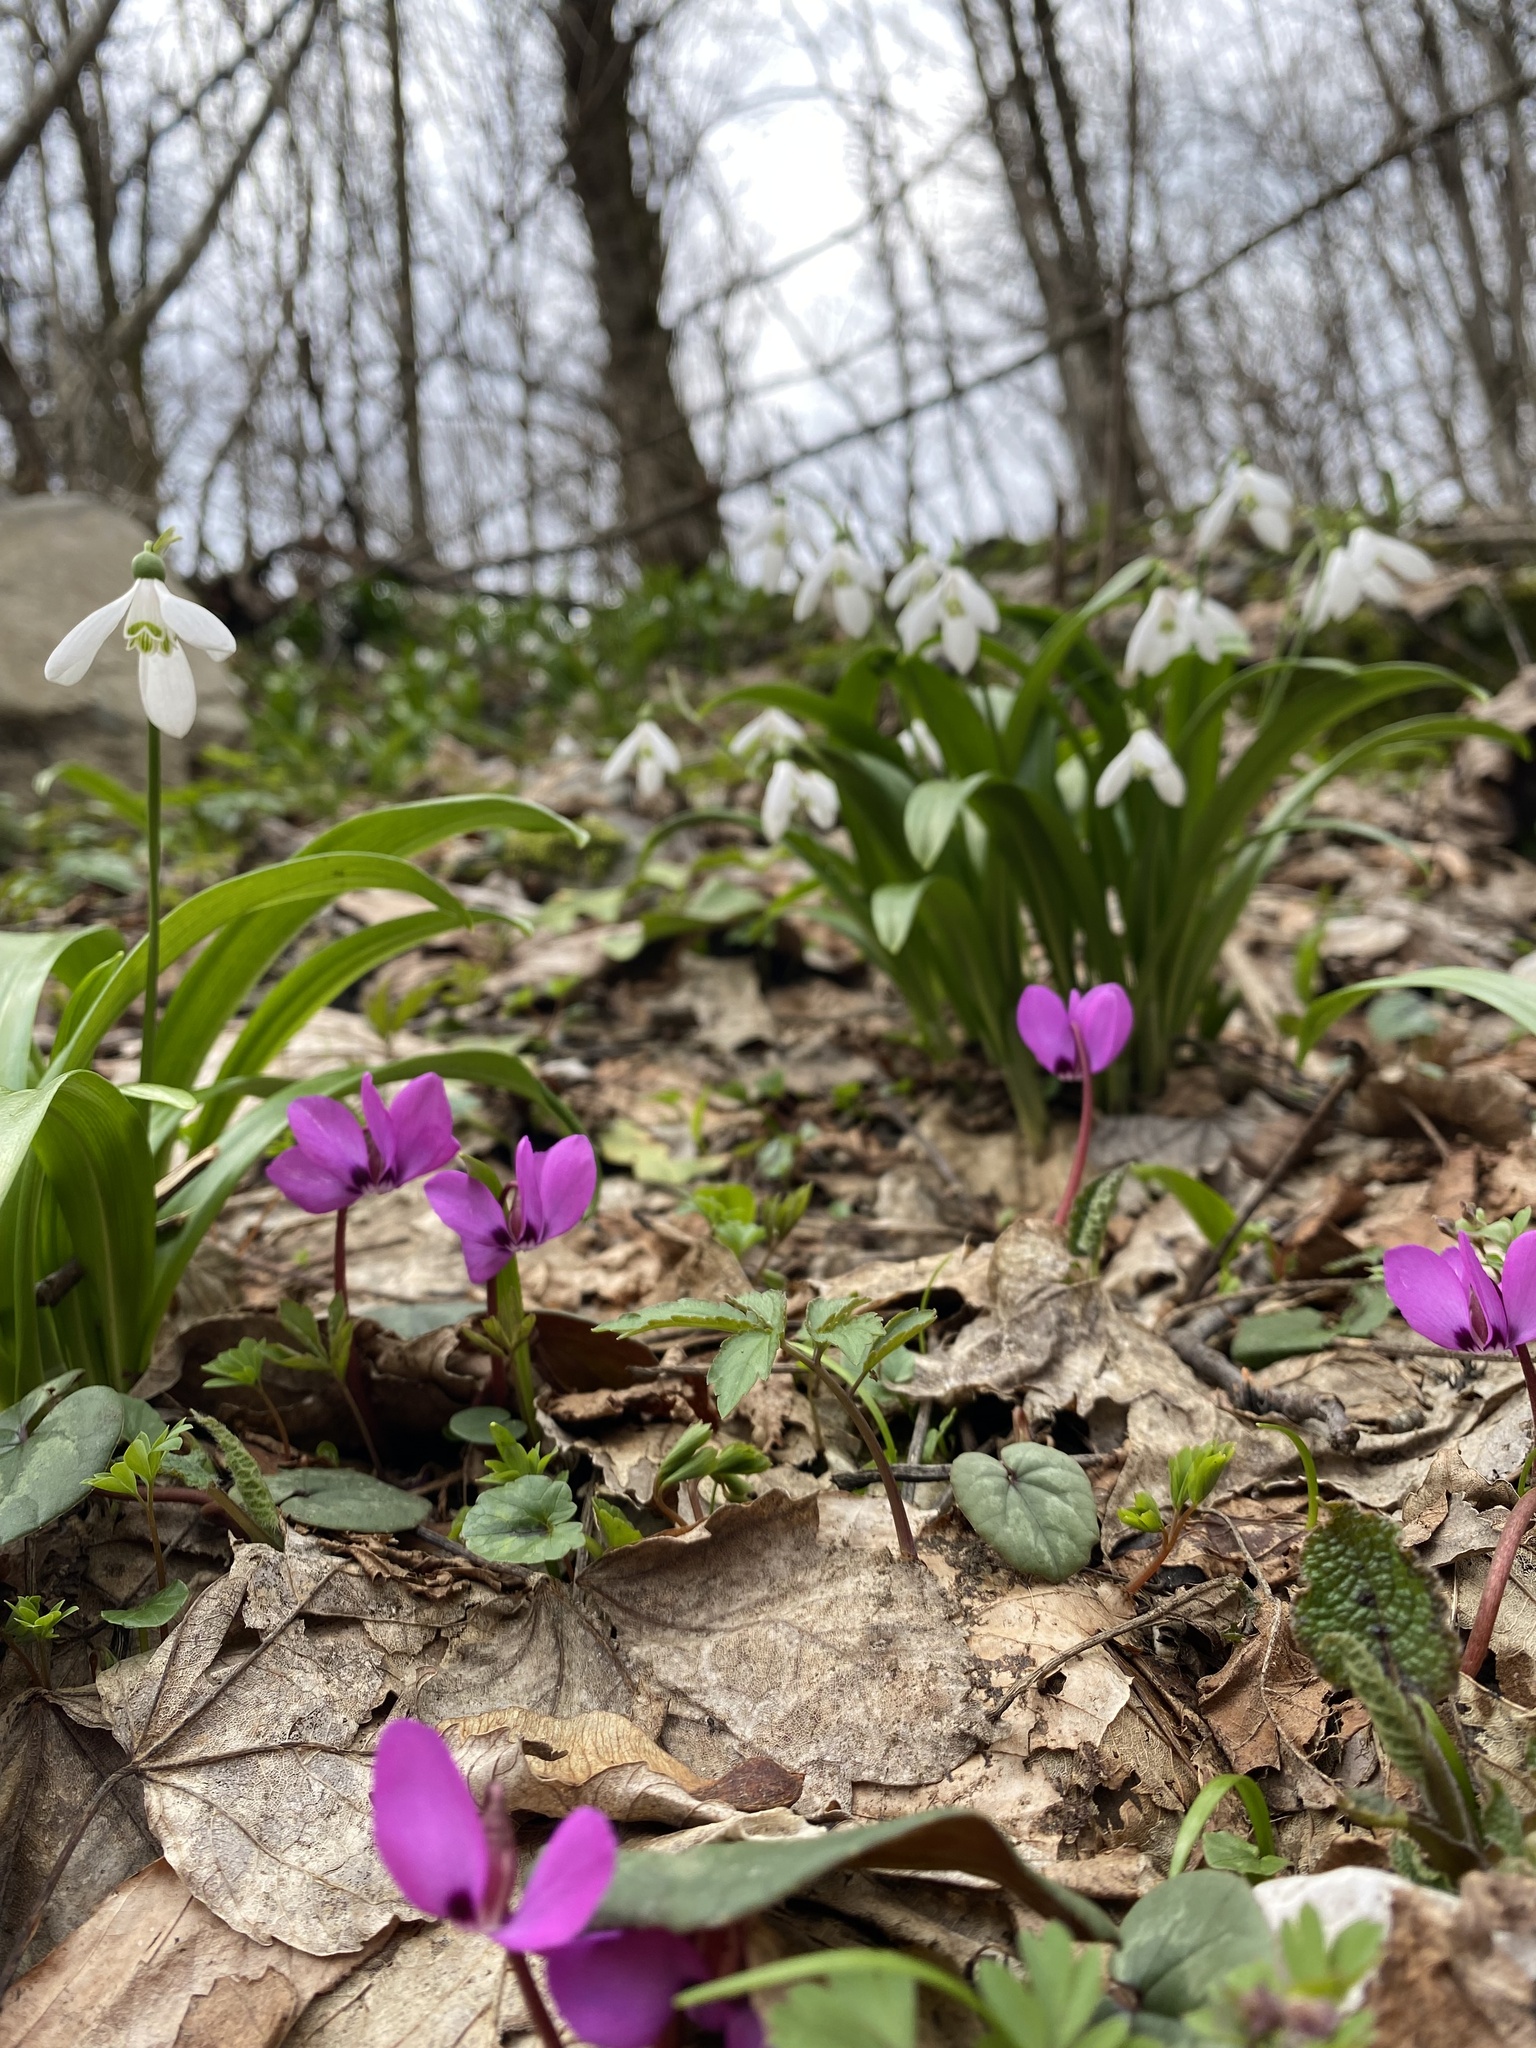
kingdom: Plantae
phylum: Tracheophyta
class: Magnoliopsida
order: Ericales
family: Primulaceae
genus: Cyclamen
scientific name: Cyclamen coum
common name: Eastern sowbread
